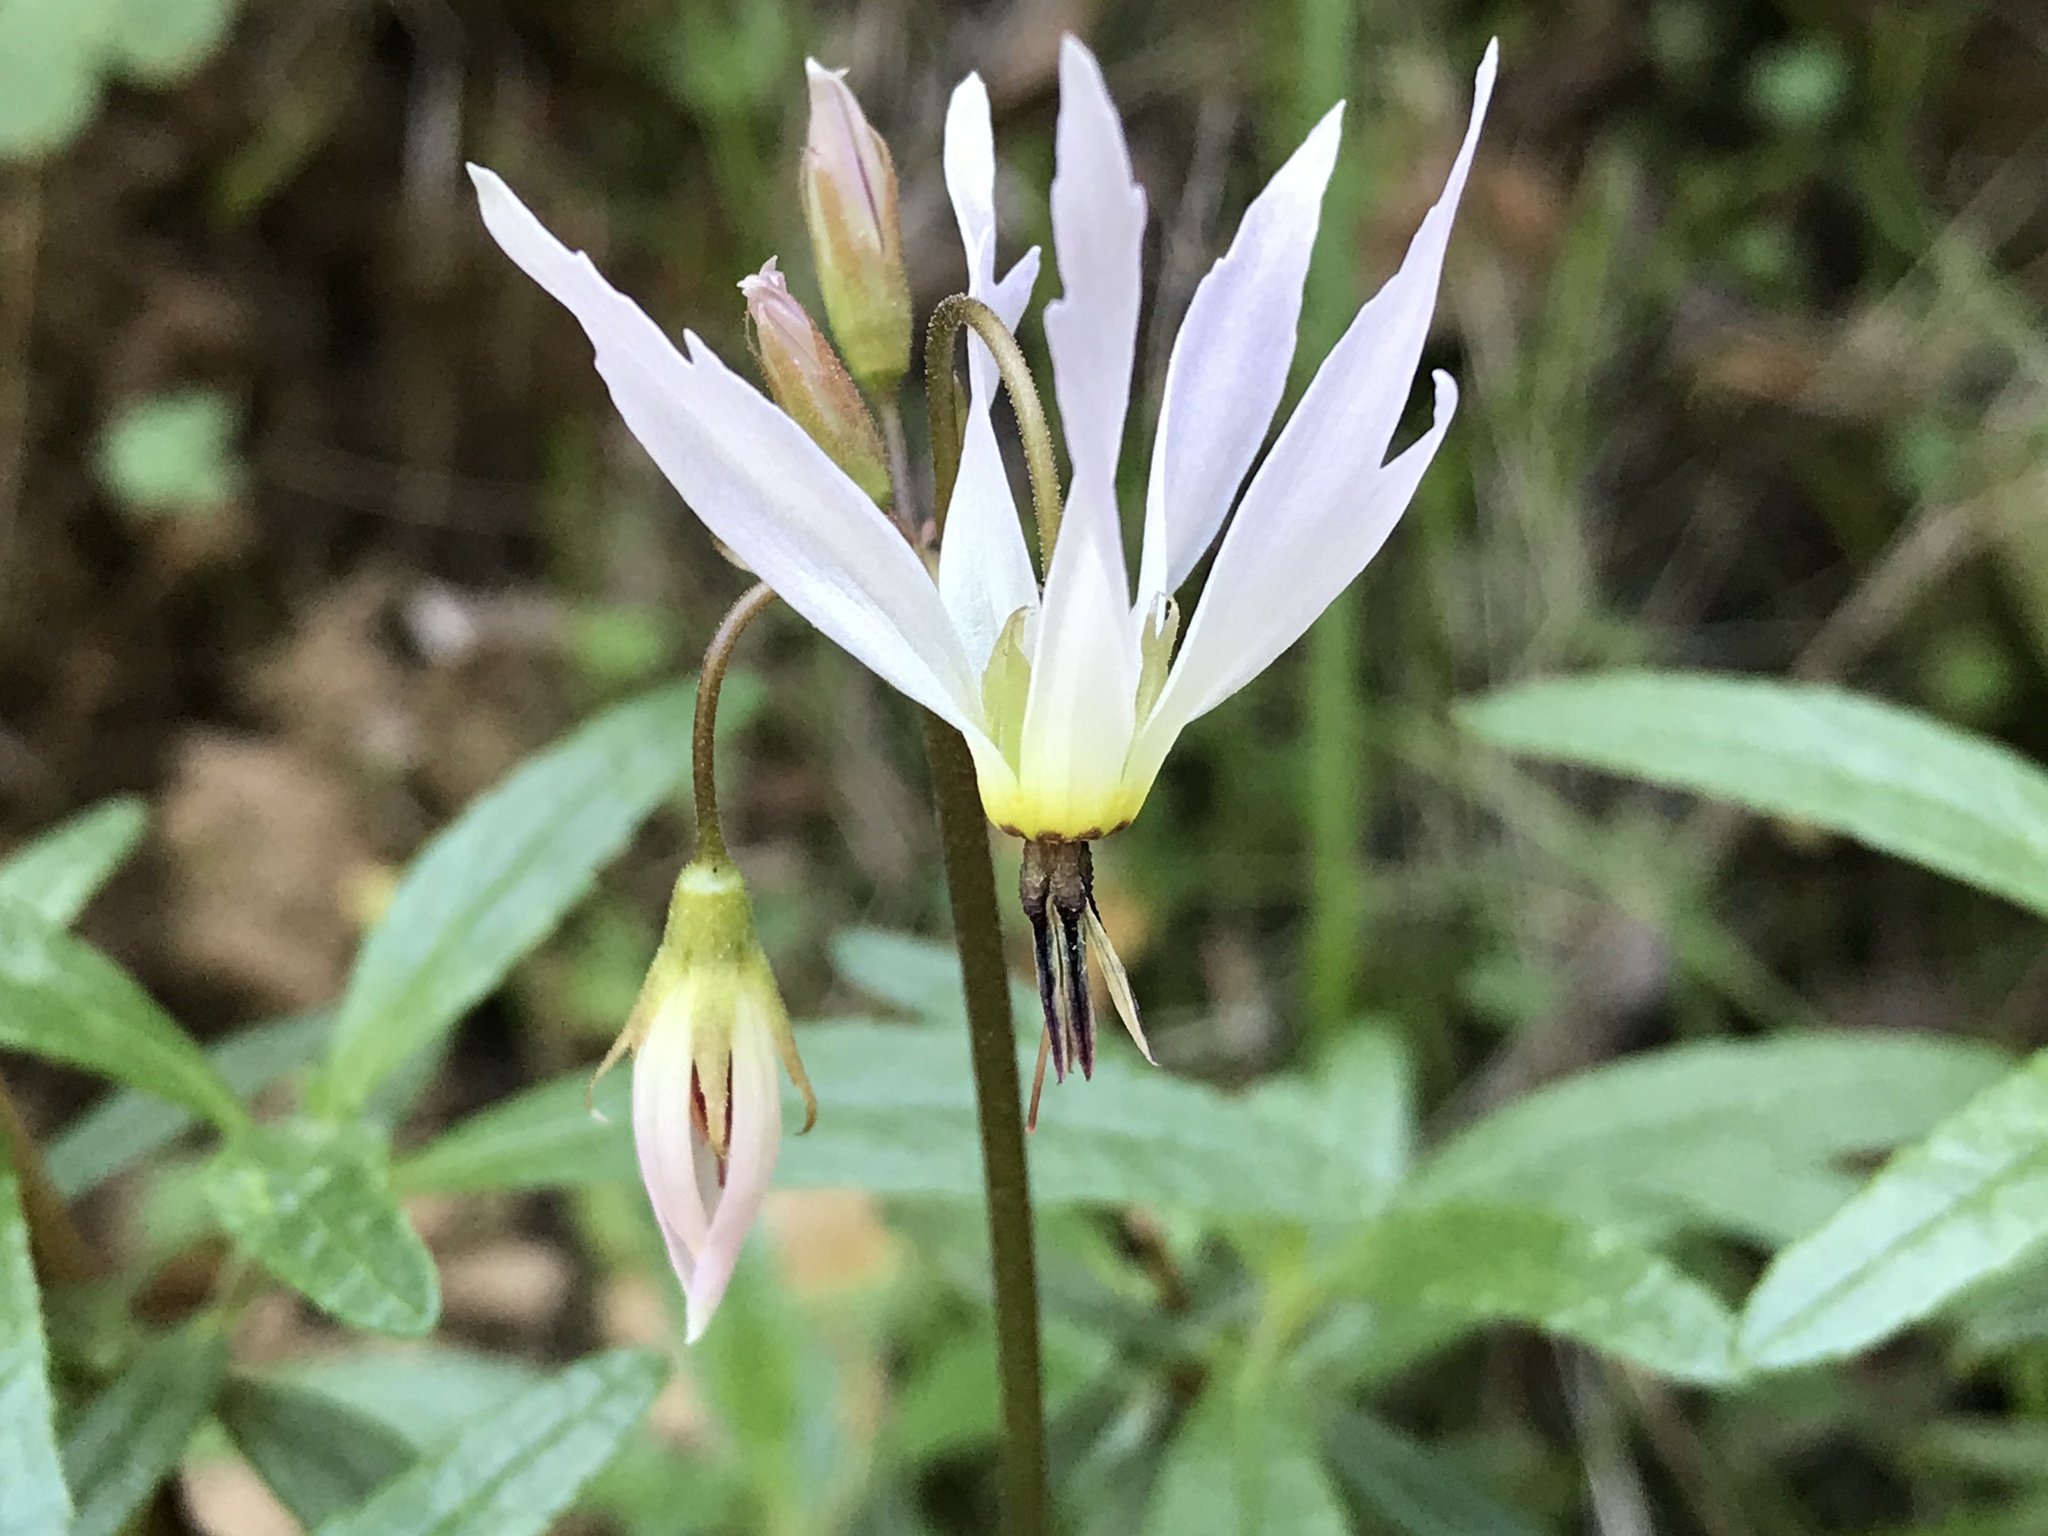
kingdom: Plantae
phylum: Tracheophyta
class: Magnoliopsida
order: Ericales
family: Primulaceae
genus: Dodecatheon
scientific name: Dodecatheon hendersonii
